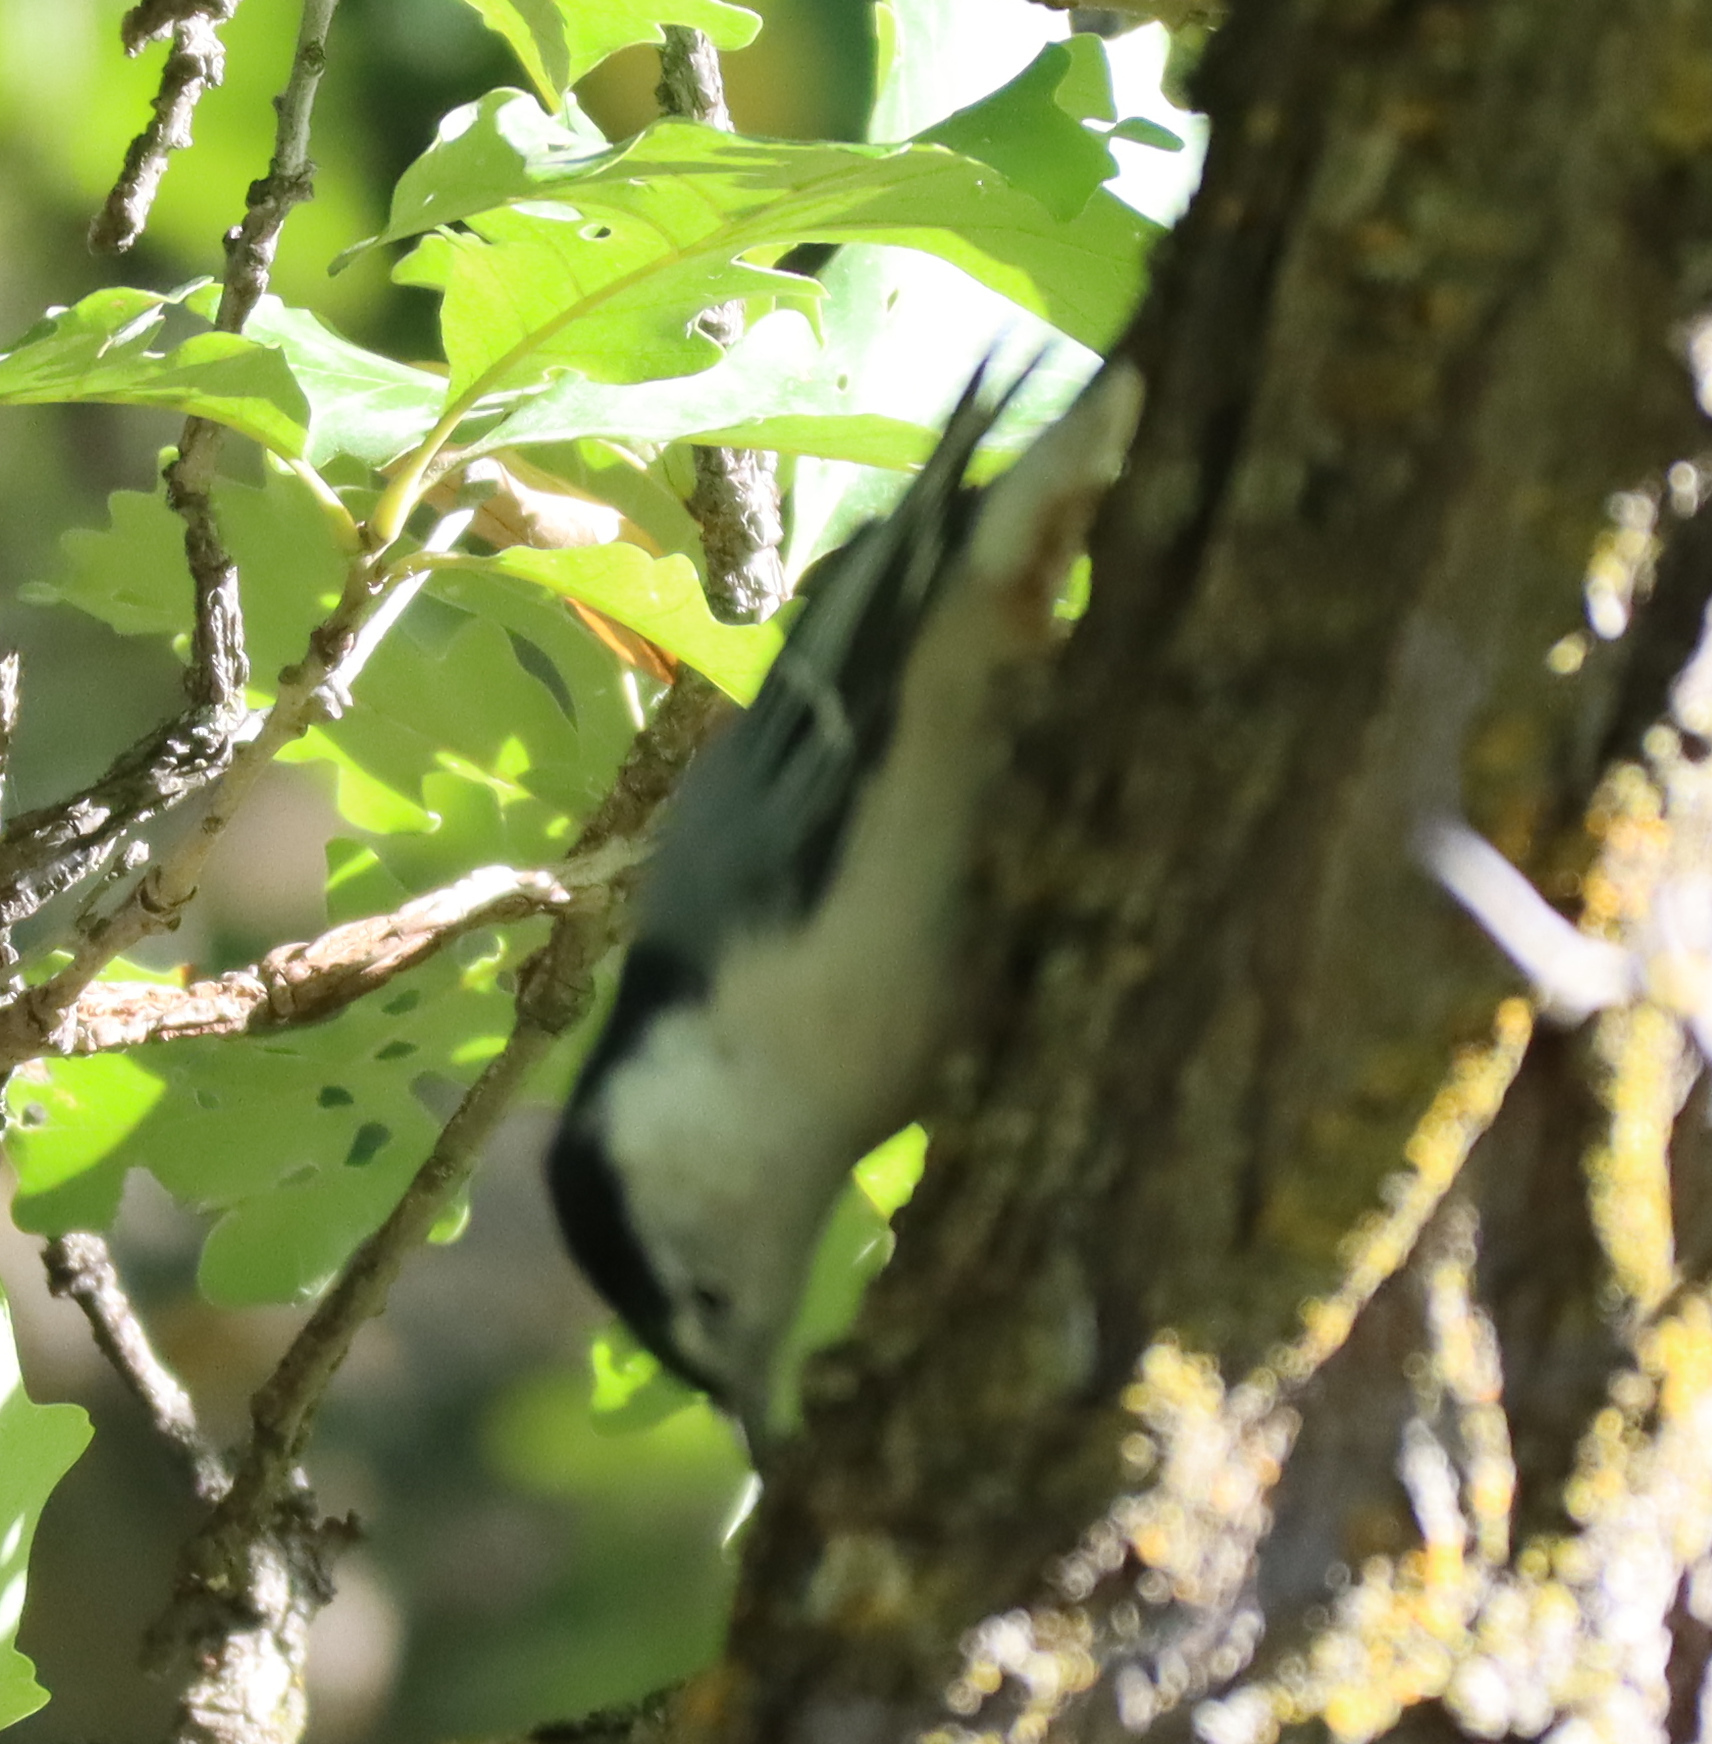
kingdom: Animalia
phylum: Chordata
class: Aves
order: Passeriformes
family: Sittidae
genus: Sitta
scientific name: Sitta carolinensis
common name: White-breasted nuthatch
